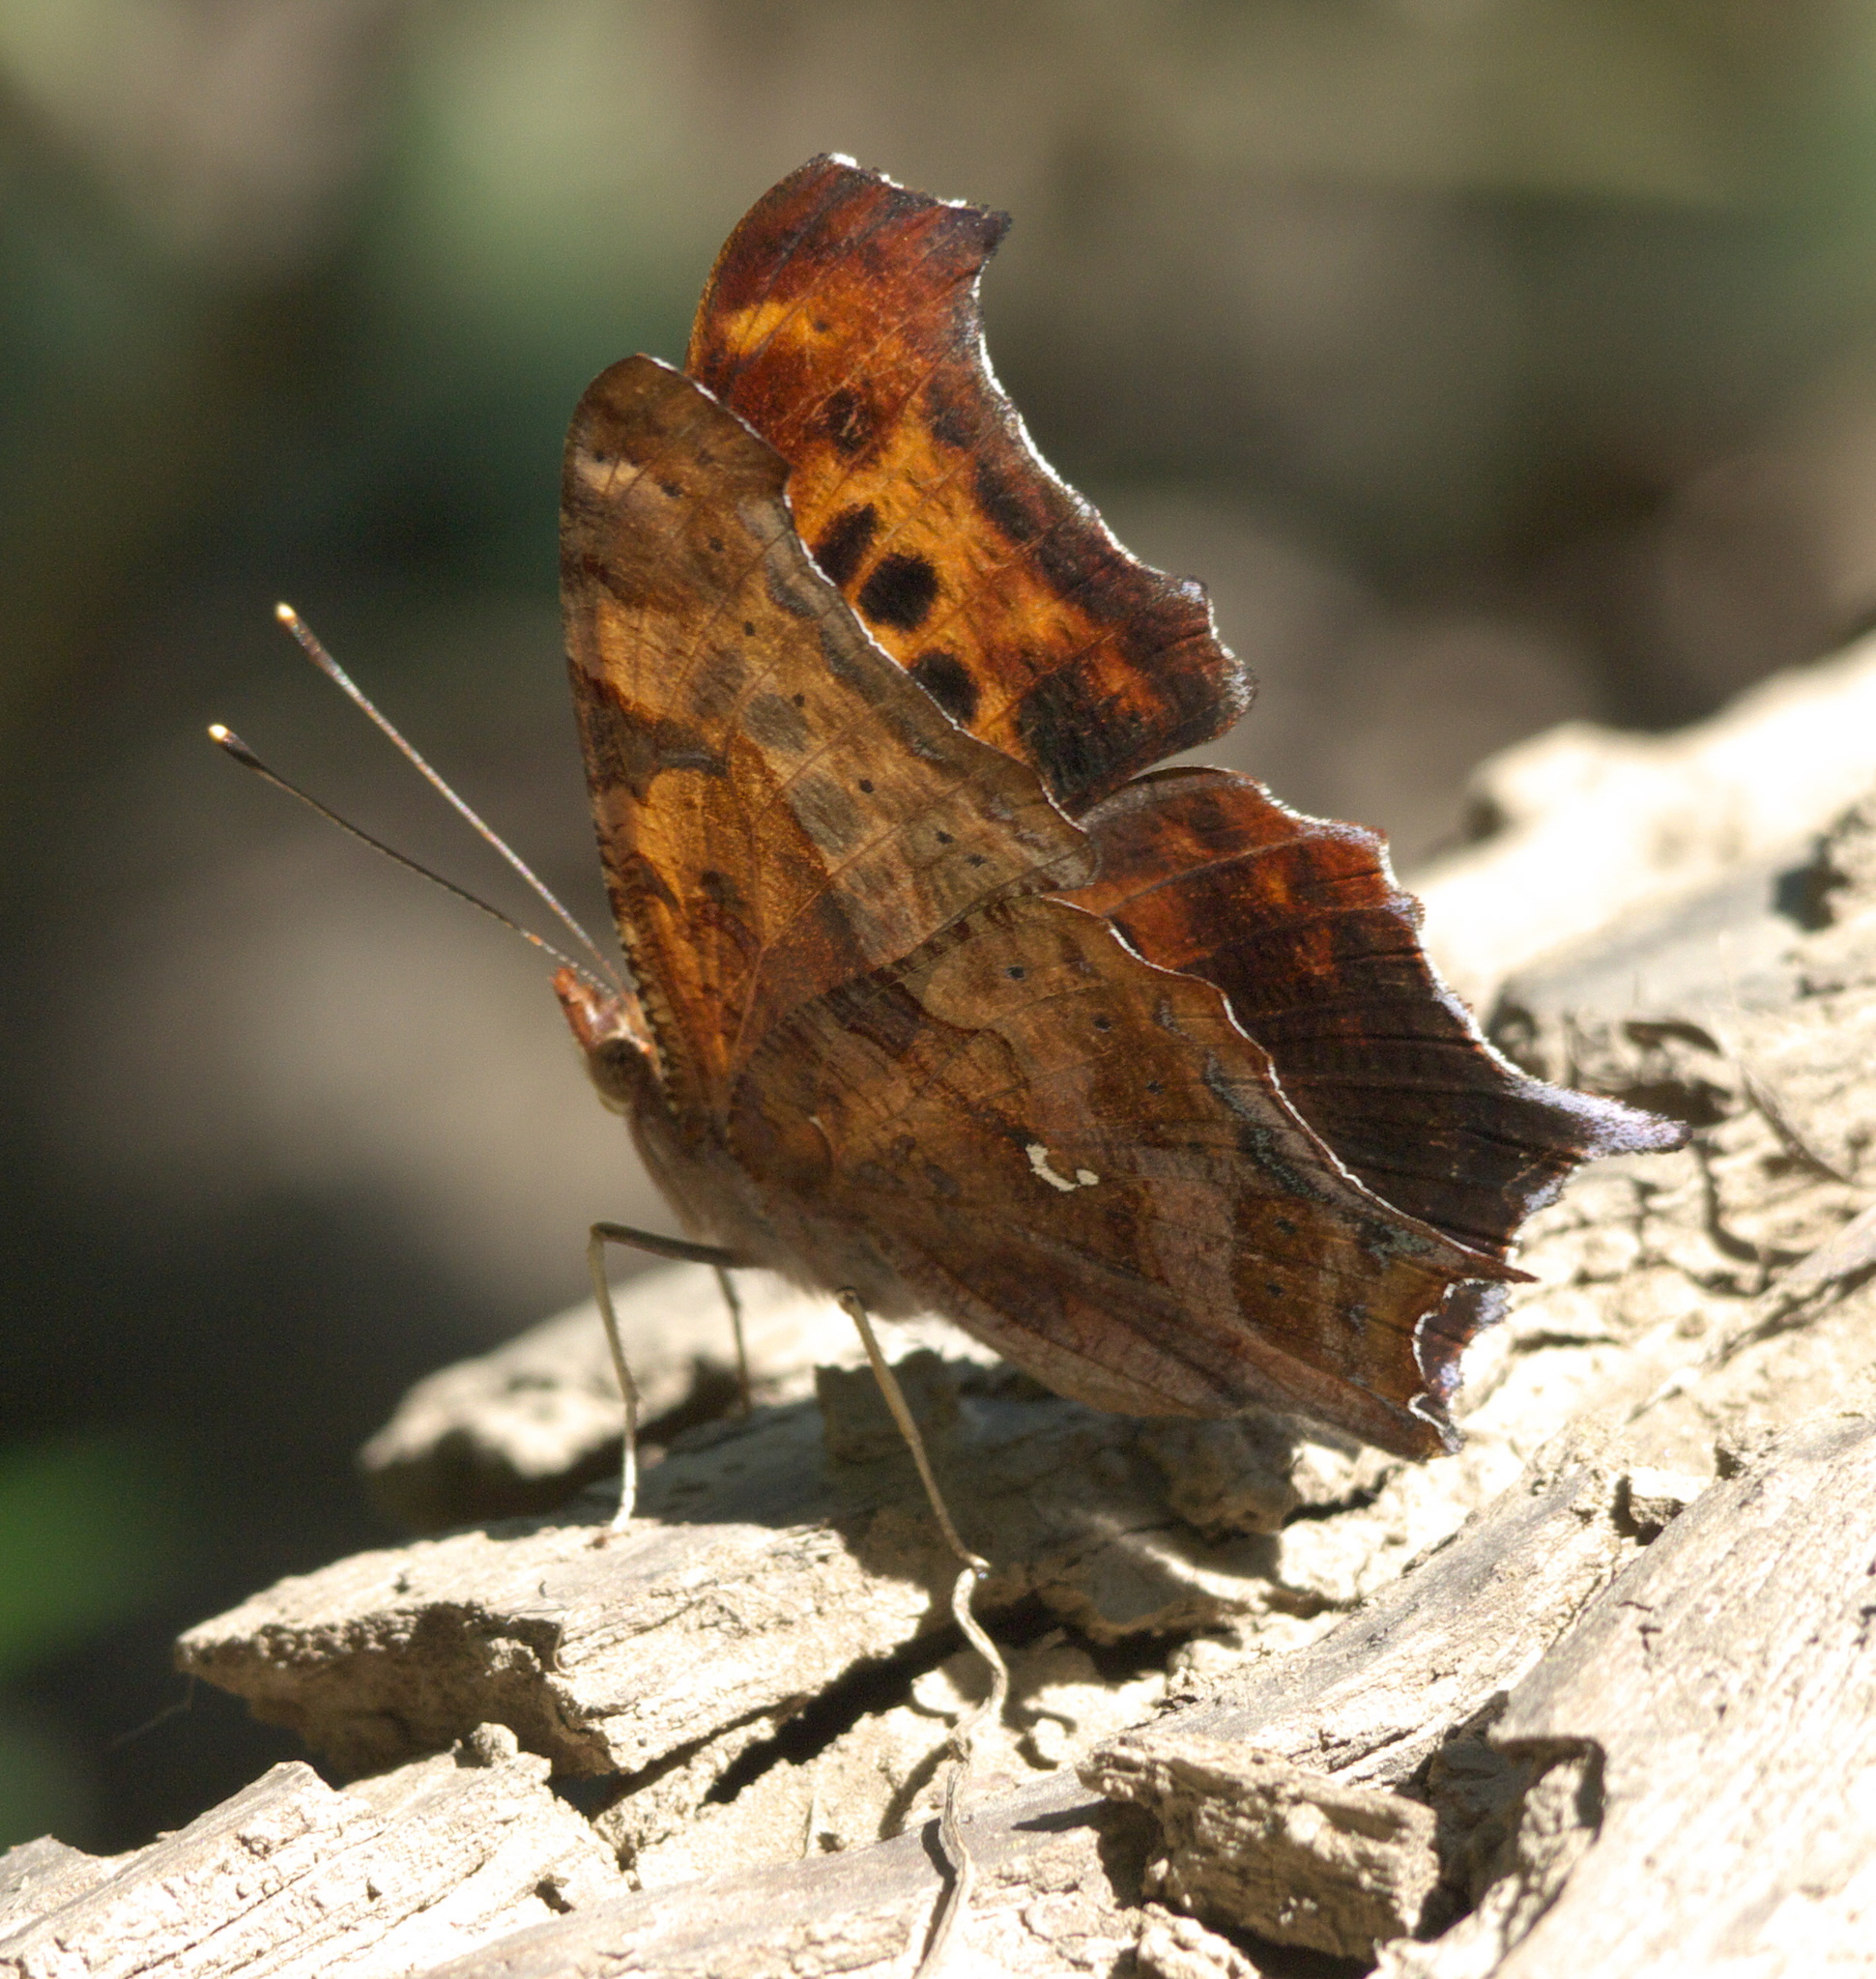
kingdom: Animalia
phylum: Arthropoda
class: Insecta
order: Lepidoptera
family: Nymphalidae
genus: Polygonia
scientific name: Polygonia interrogationis
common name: Question mark
